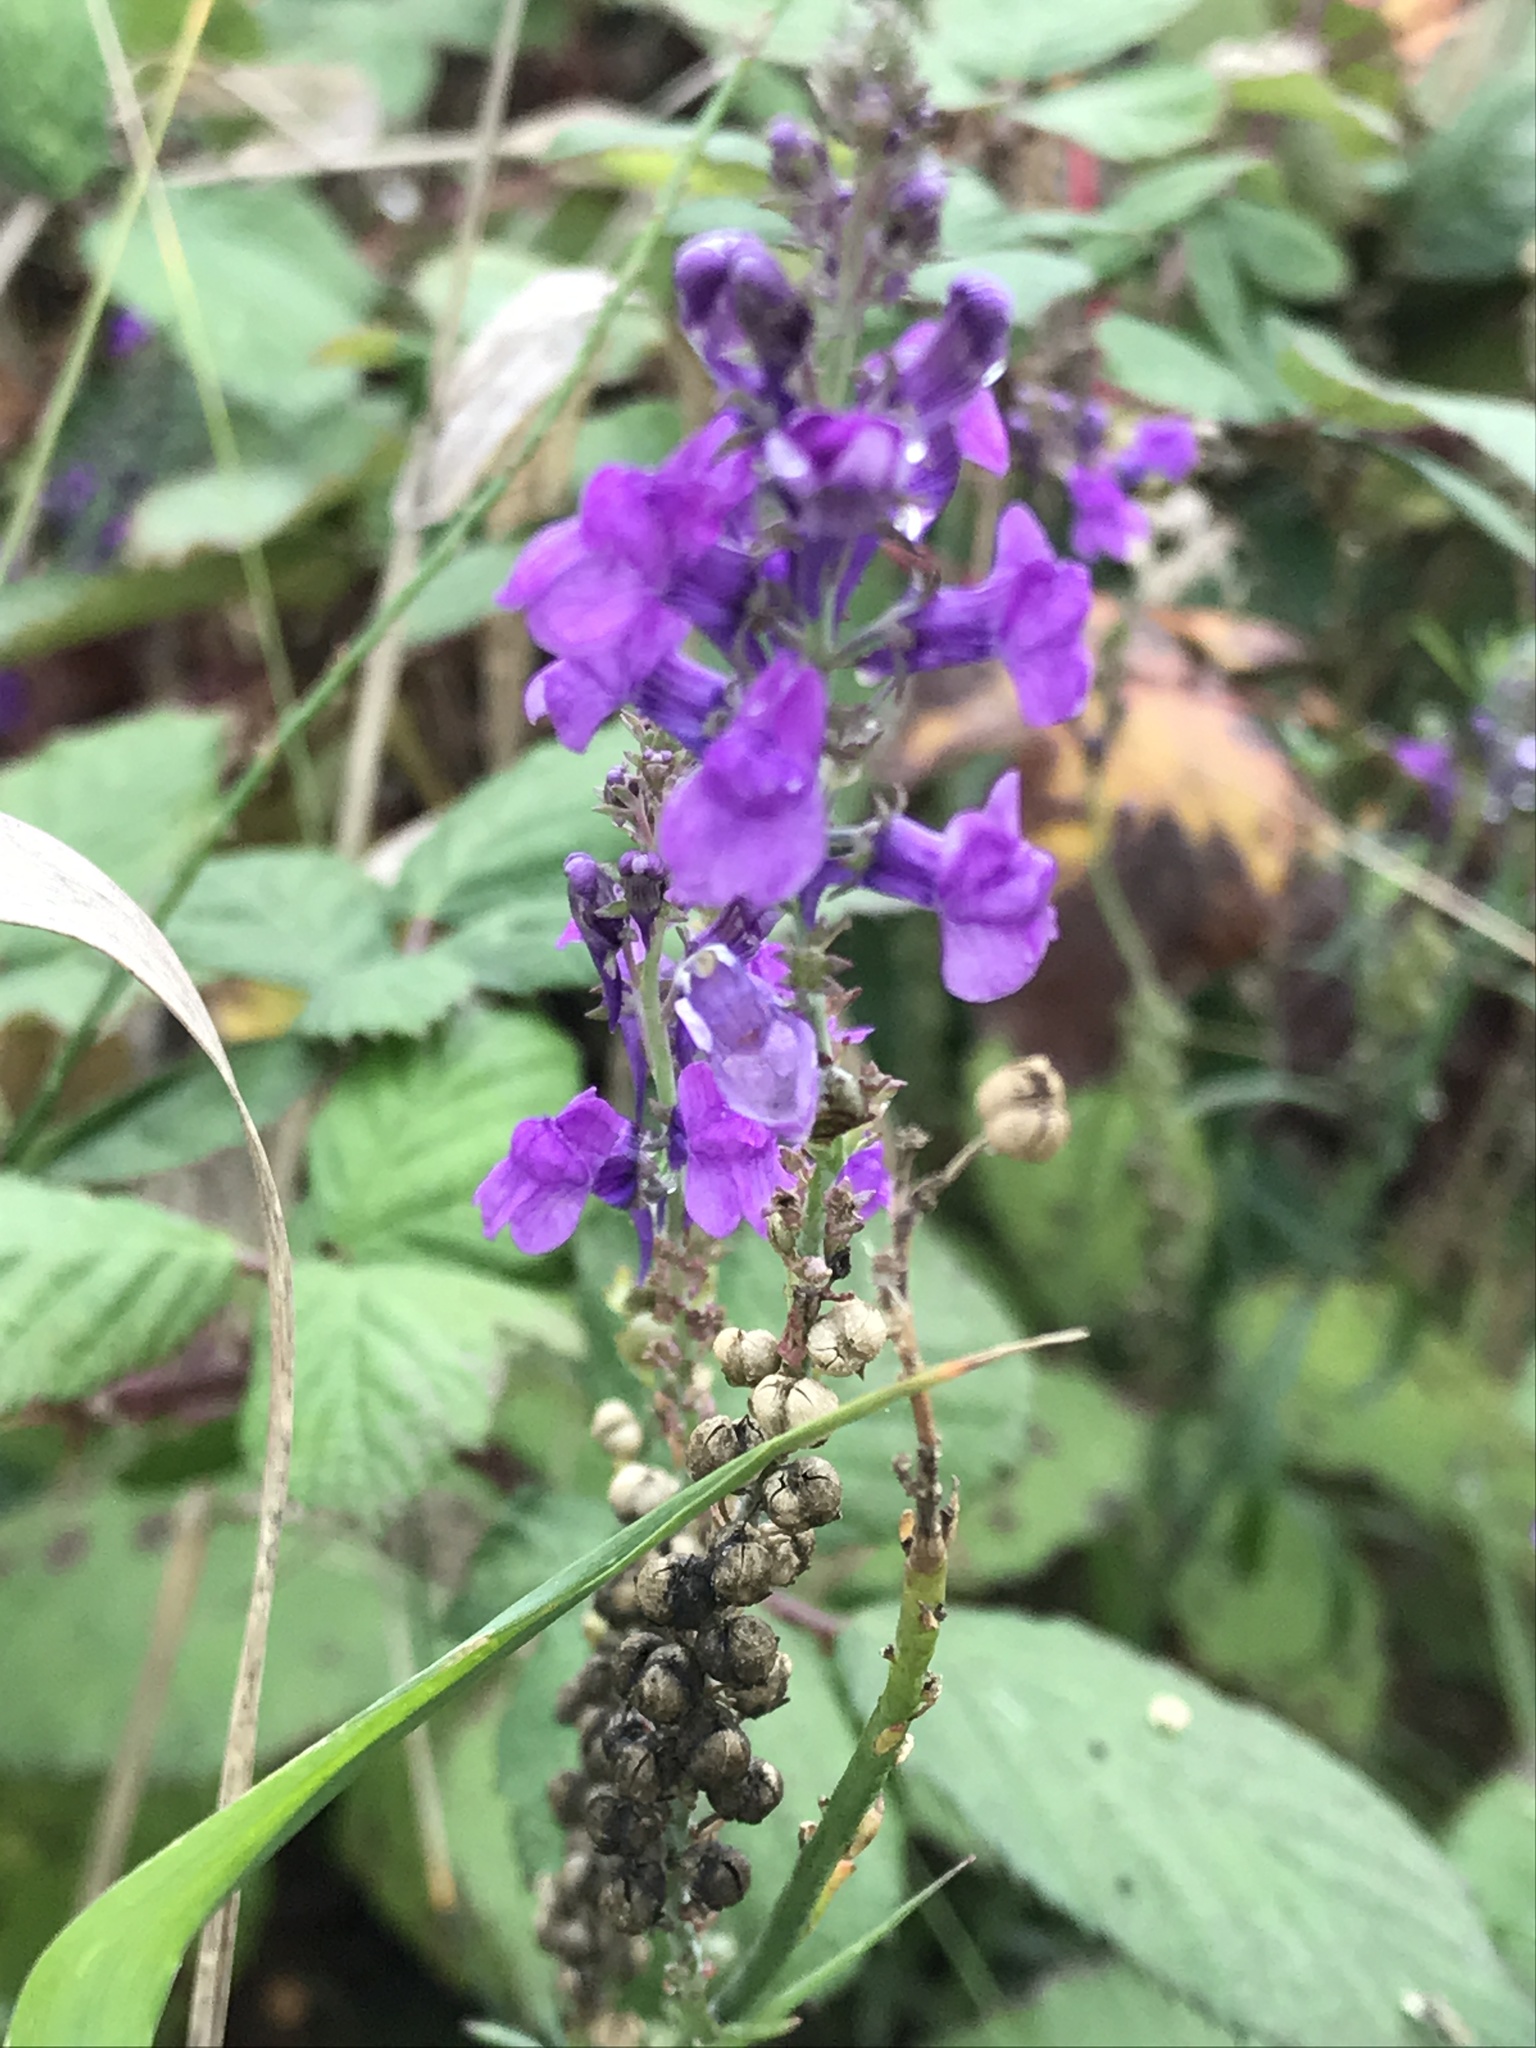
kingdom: Plantae
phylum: Tracheophyta
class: Magnoliopsida
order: Lamiales
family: Plantaginaceae
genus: Linaria
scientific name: Linaria purpurea
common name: Purple toadflax
